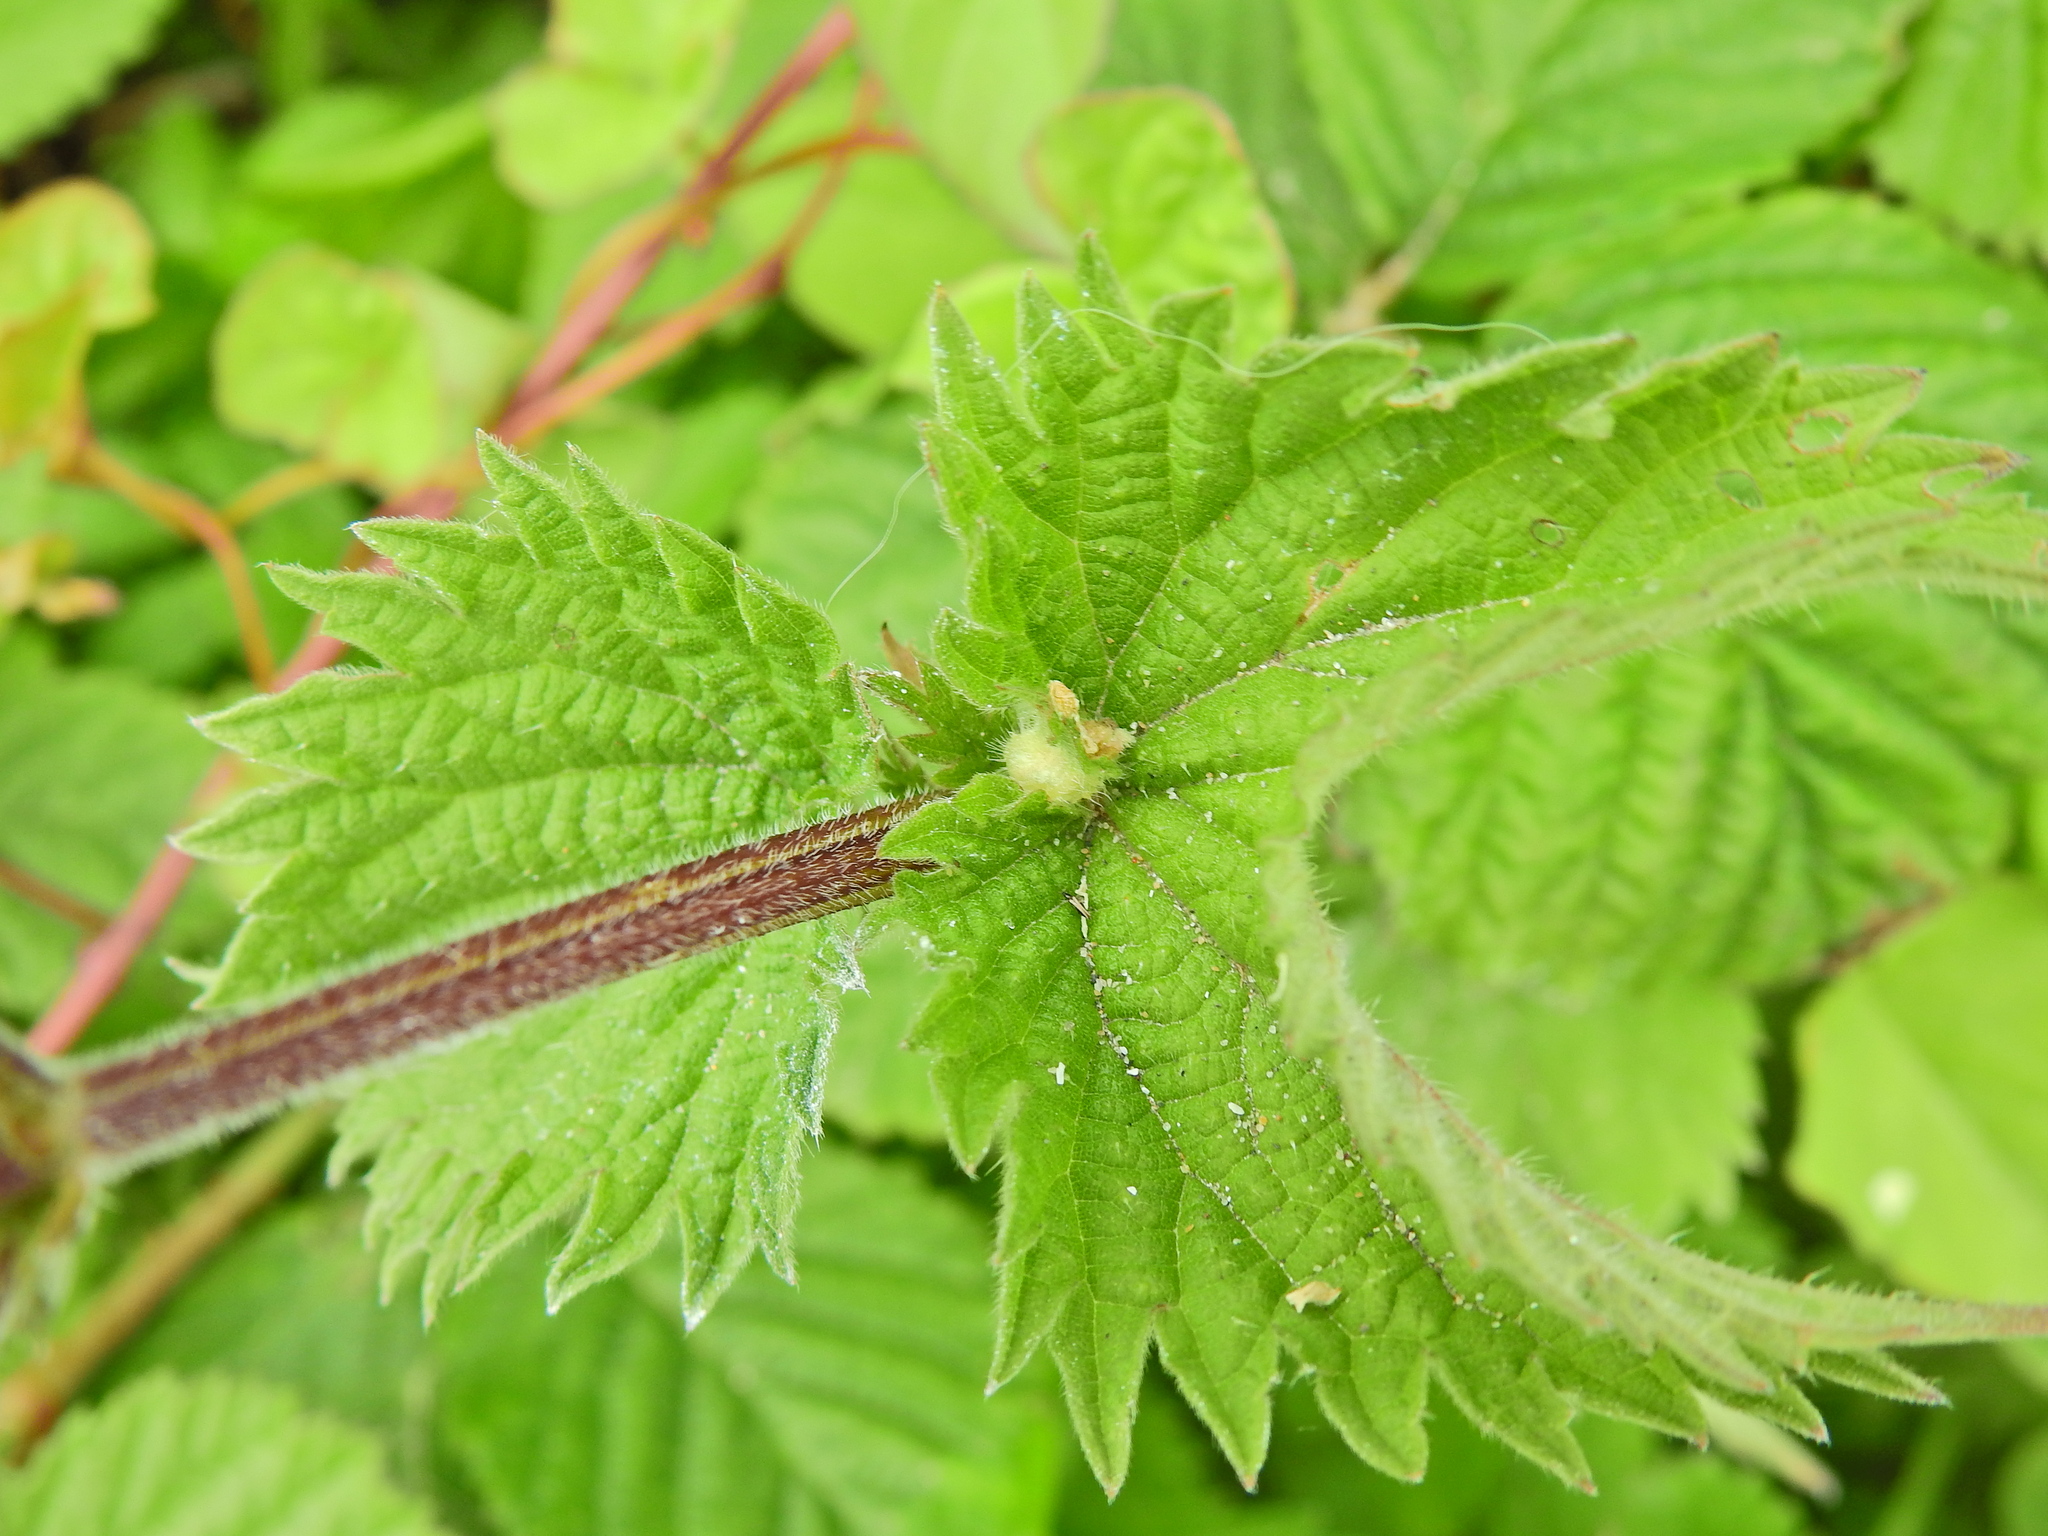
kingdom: Animalia
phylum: Arthropoda
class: Insecta
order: Diptera
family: Cecidomyiidae
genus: Dasineura
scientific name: Dasineura urticae
